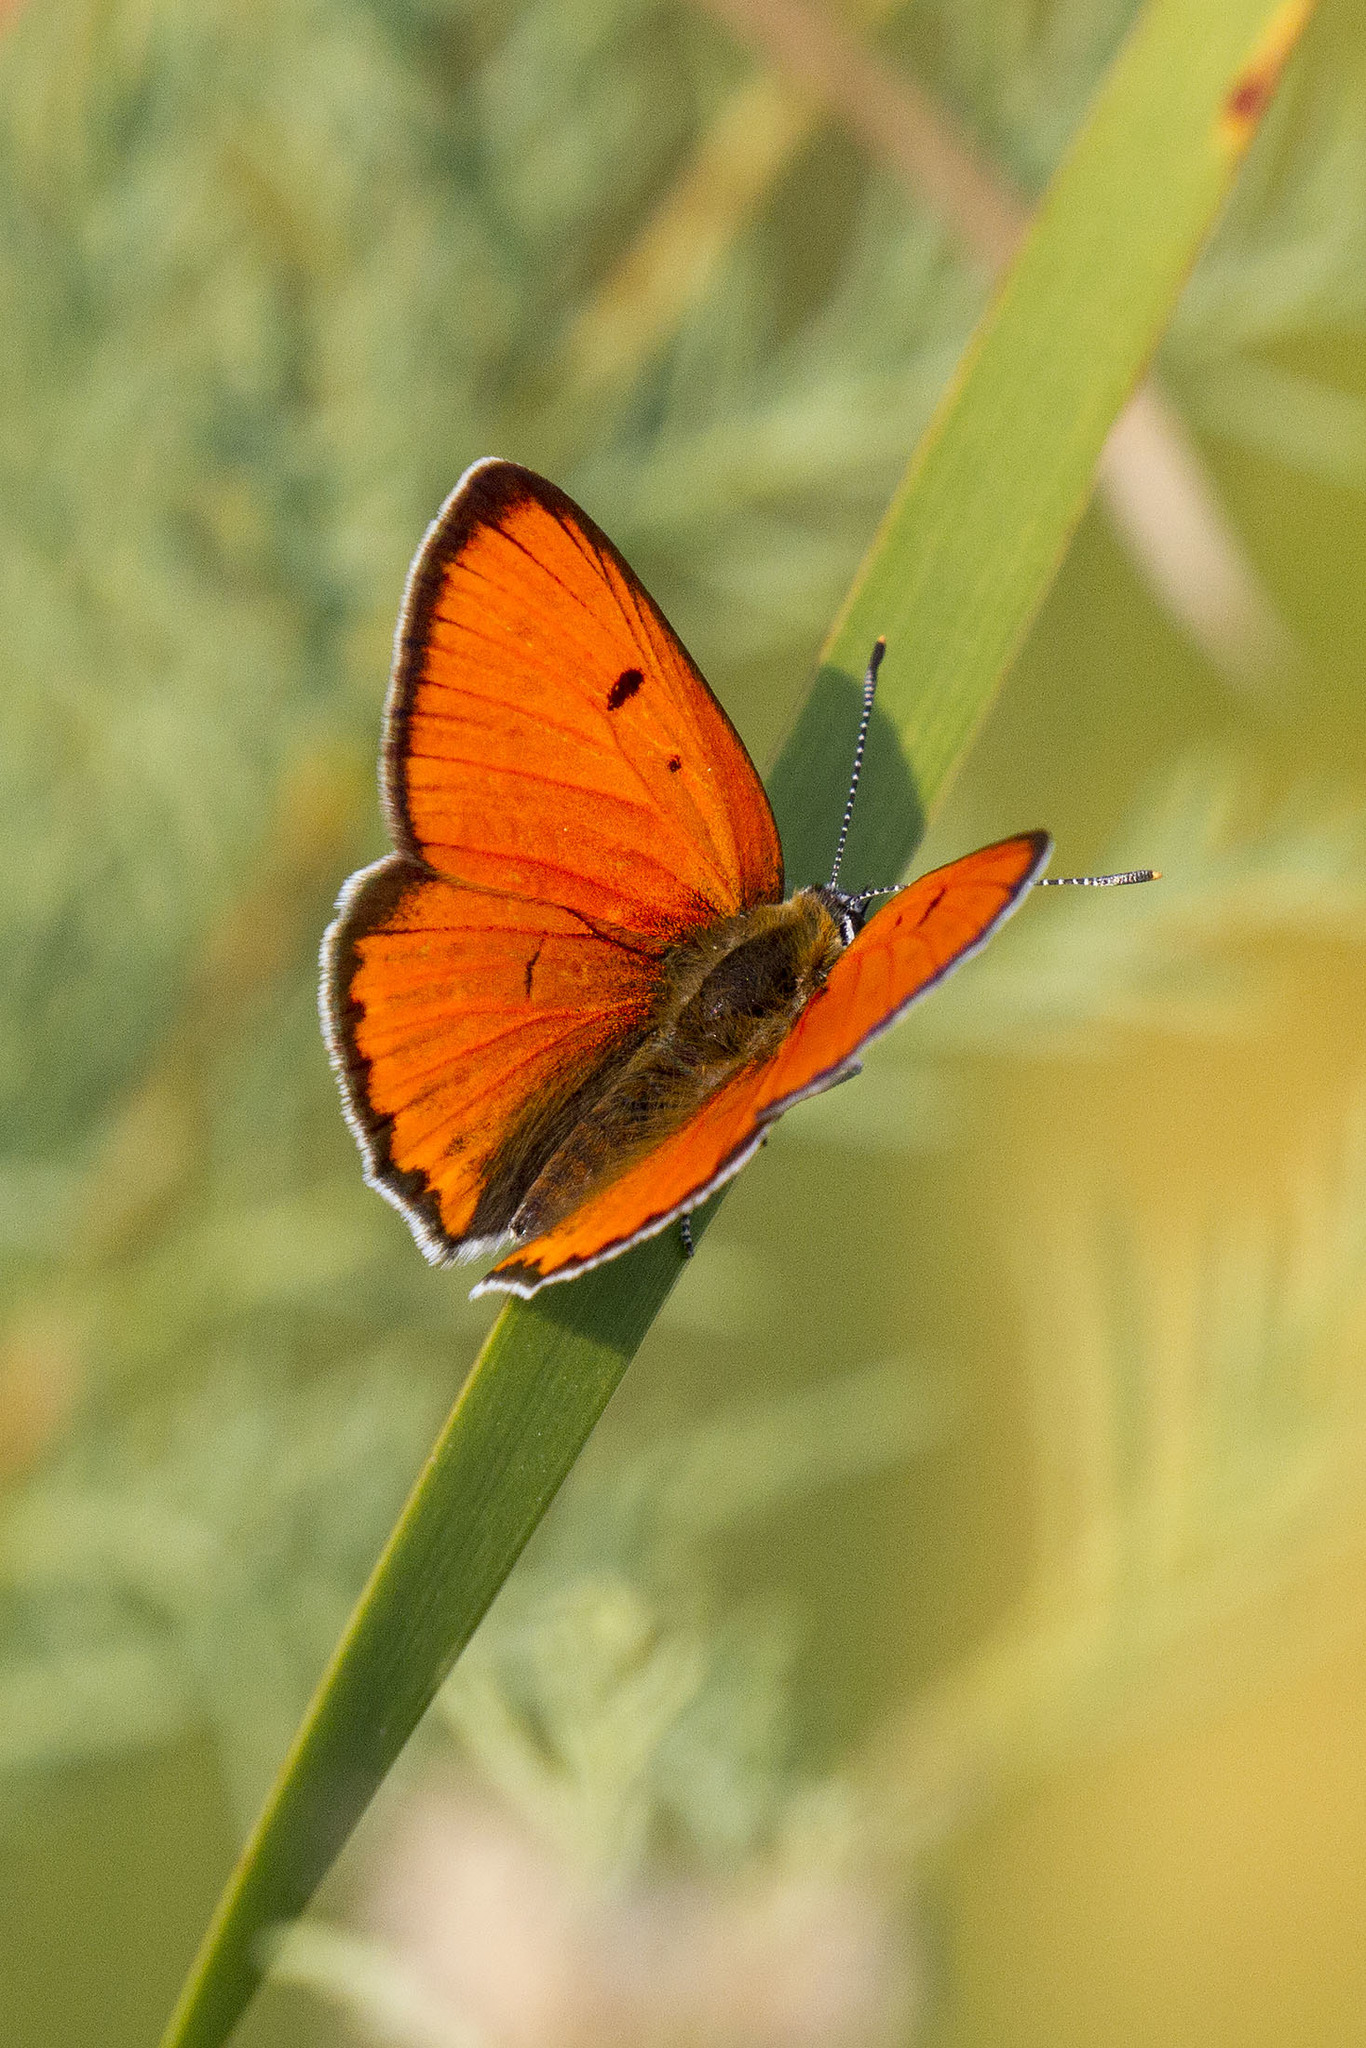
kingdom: Animalia
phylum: Arthropoda
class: Insecta
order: Lepidoptera
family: Lycaenidae
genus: Lycaena
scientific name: Lycaena dispar
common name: Large copper
